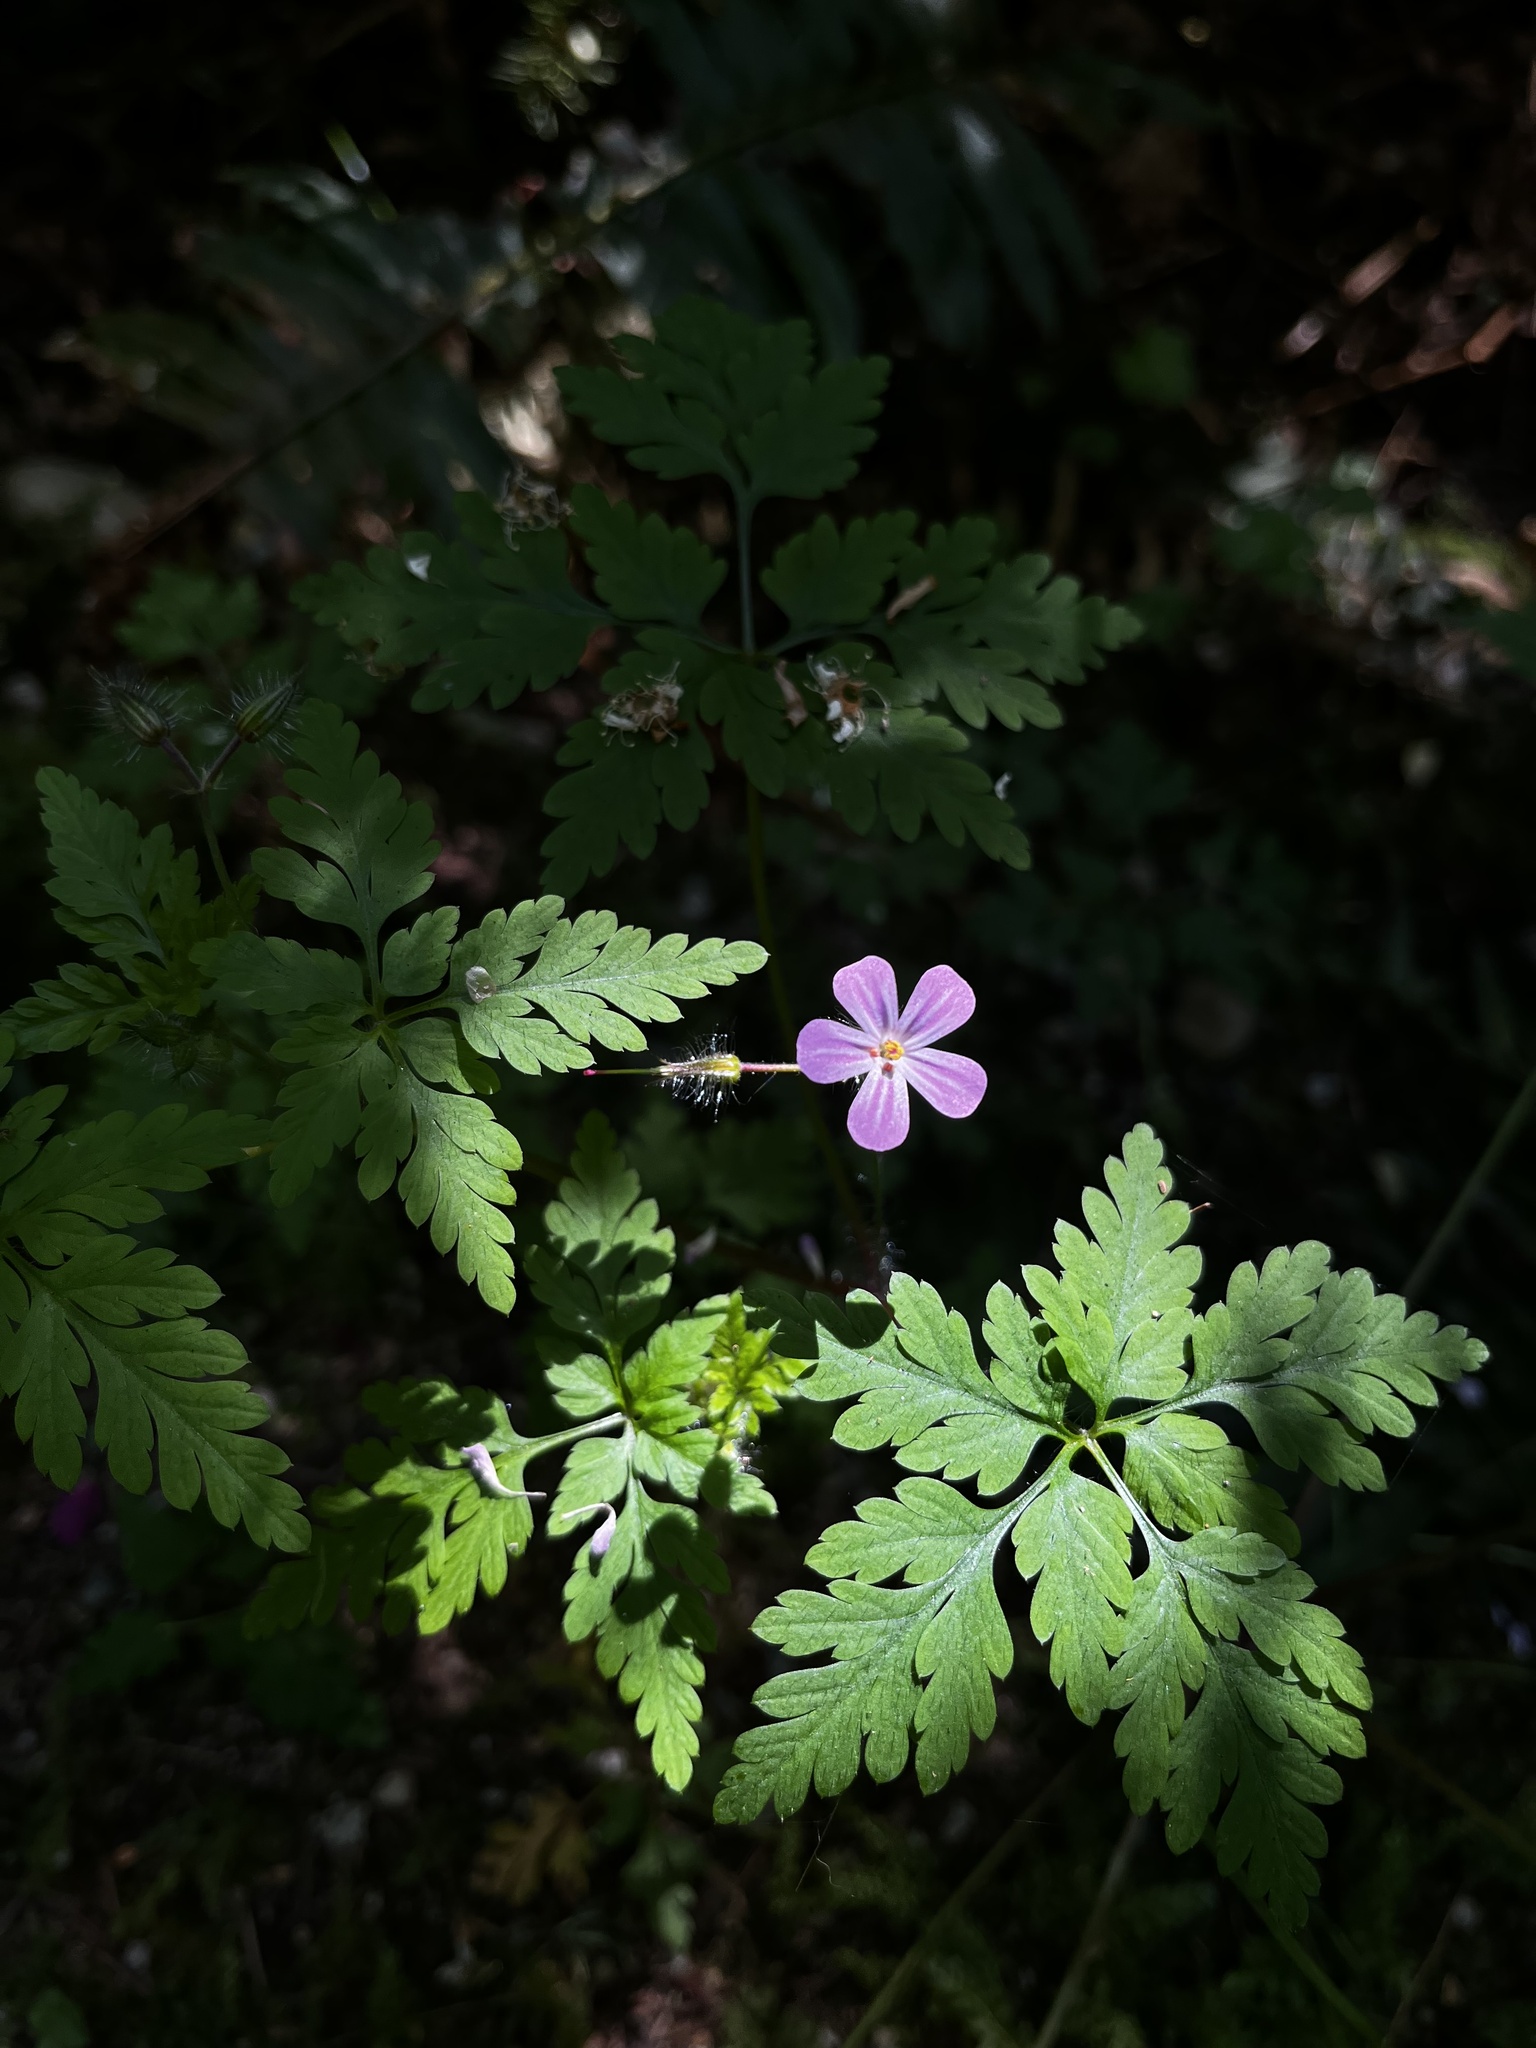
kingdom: Plantae
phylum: Tracheophyta
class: Magnoliopsida
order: Geraniales
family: Geraniaceae
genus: Geranium
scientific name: Geranium robertianum
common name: Herb-robert
